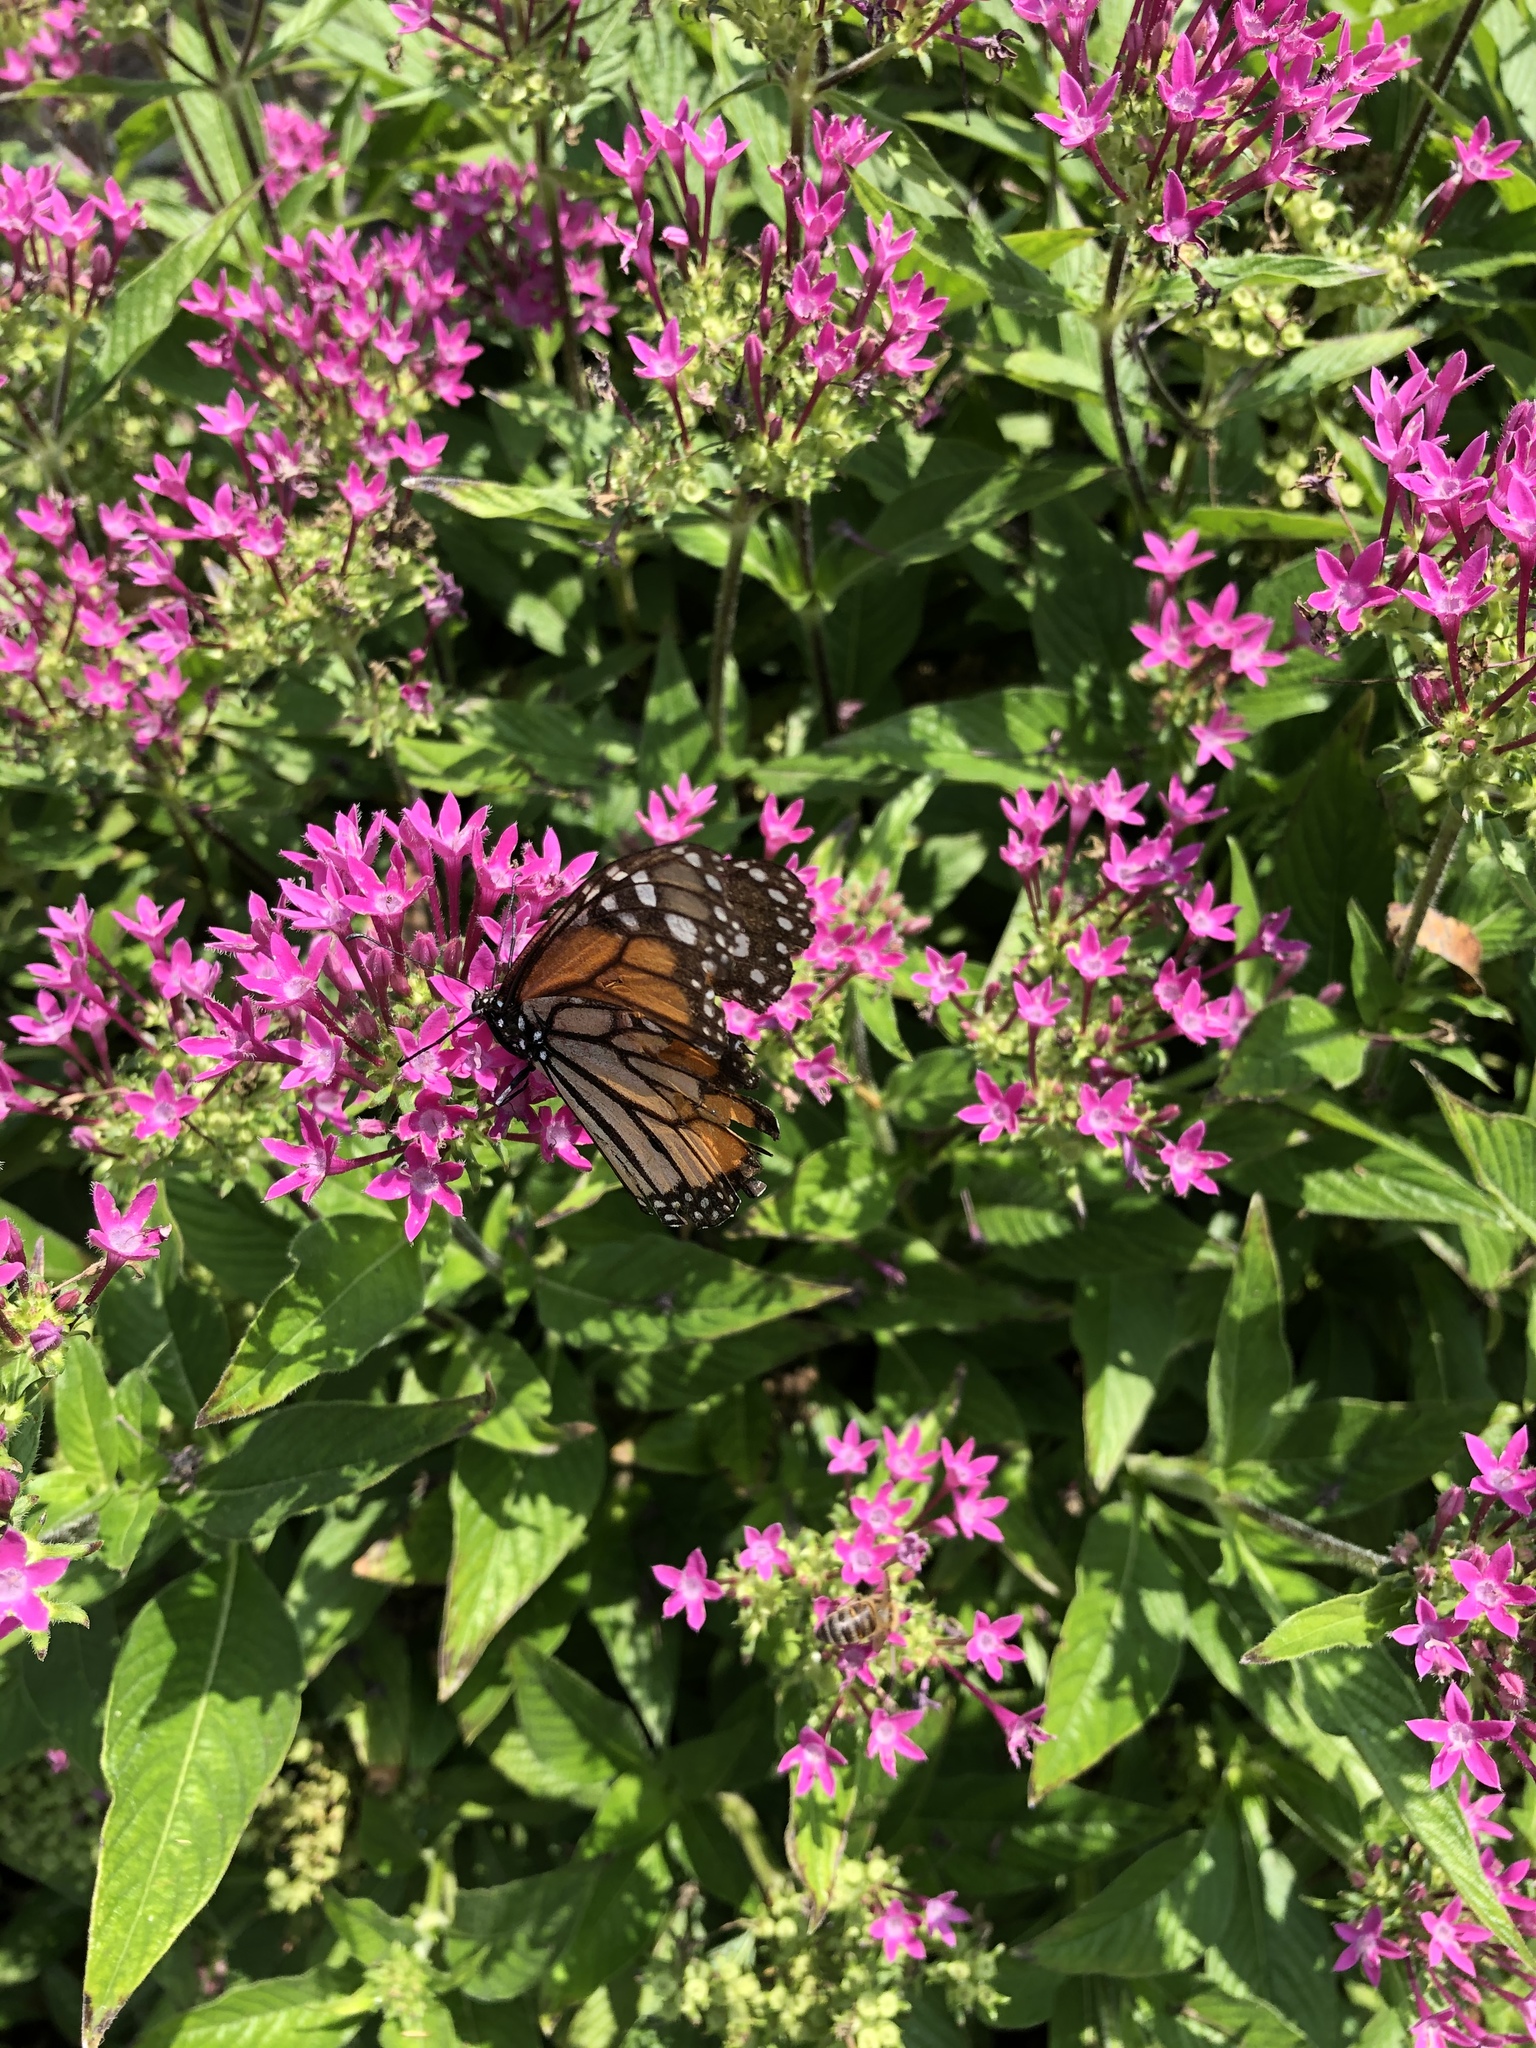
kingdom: Animalia
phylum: Arthropoda
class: Insecta
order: Lepidoptera
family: Nymphalidae
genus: Danaus
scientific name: Danaus plexippus
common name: Monarch
